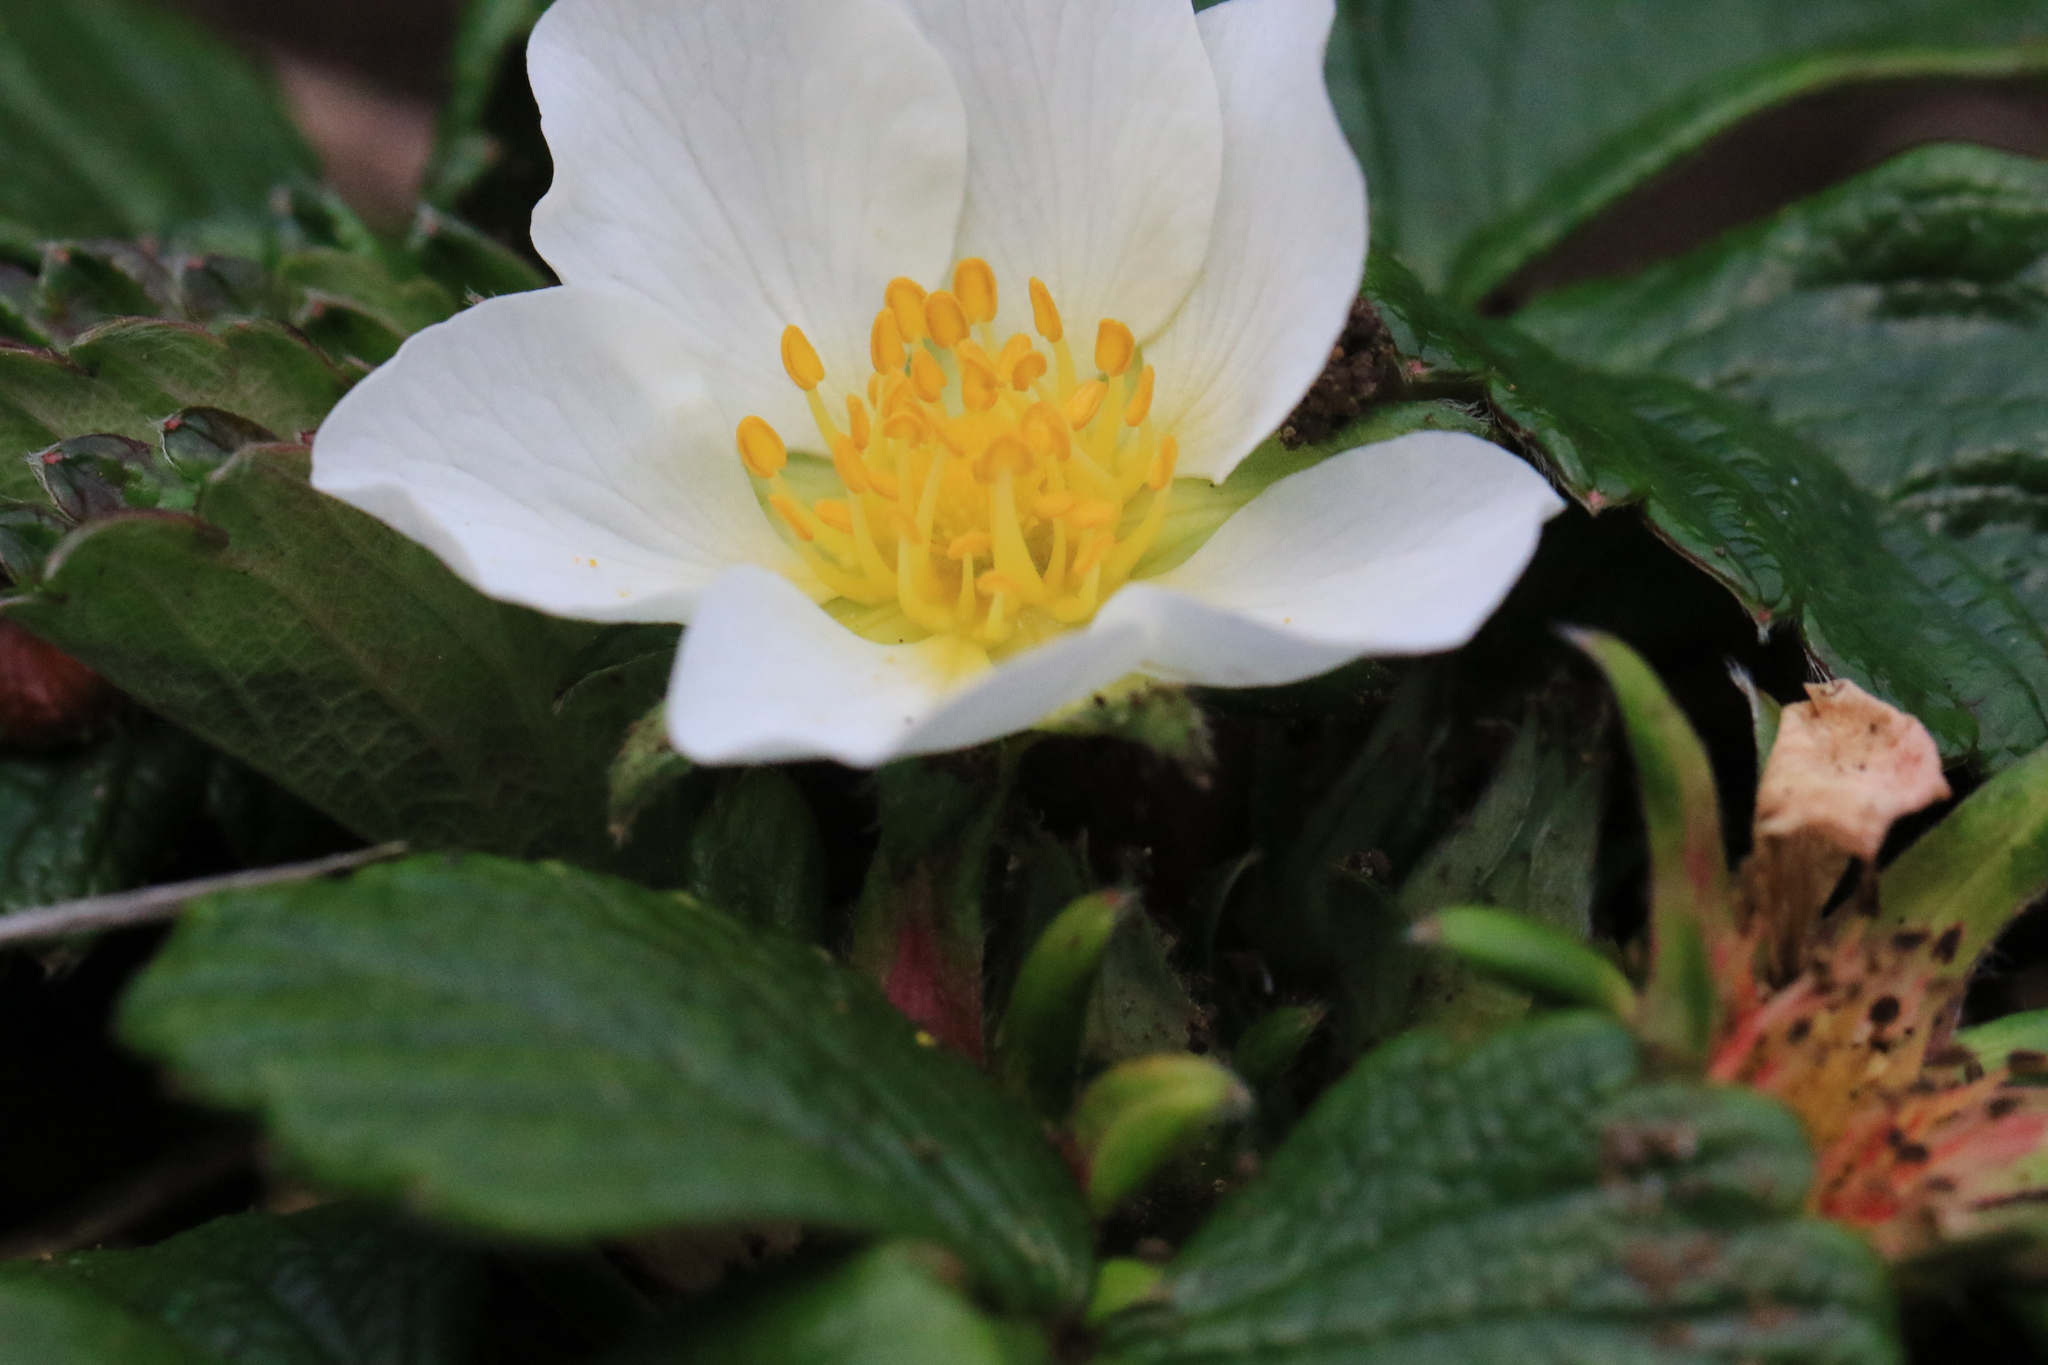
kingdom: Plantae
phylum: Tracheophyta
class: Magnoliopsida
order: Rosales
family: Rosaceae
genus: Fragaria
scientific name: Fragaria chiloensis
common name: Beach strawberry
